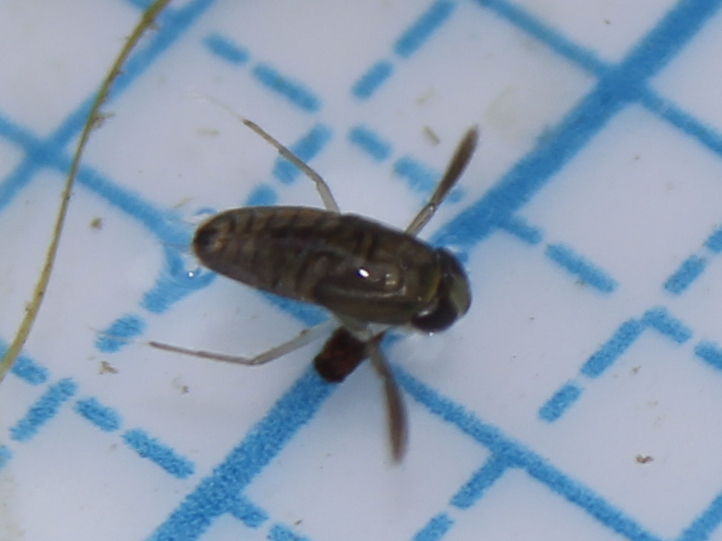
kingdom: Animalia
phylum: Arthropoda
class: Insecta
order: Hemiptera
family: Corixidae
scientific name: Corixidae
